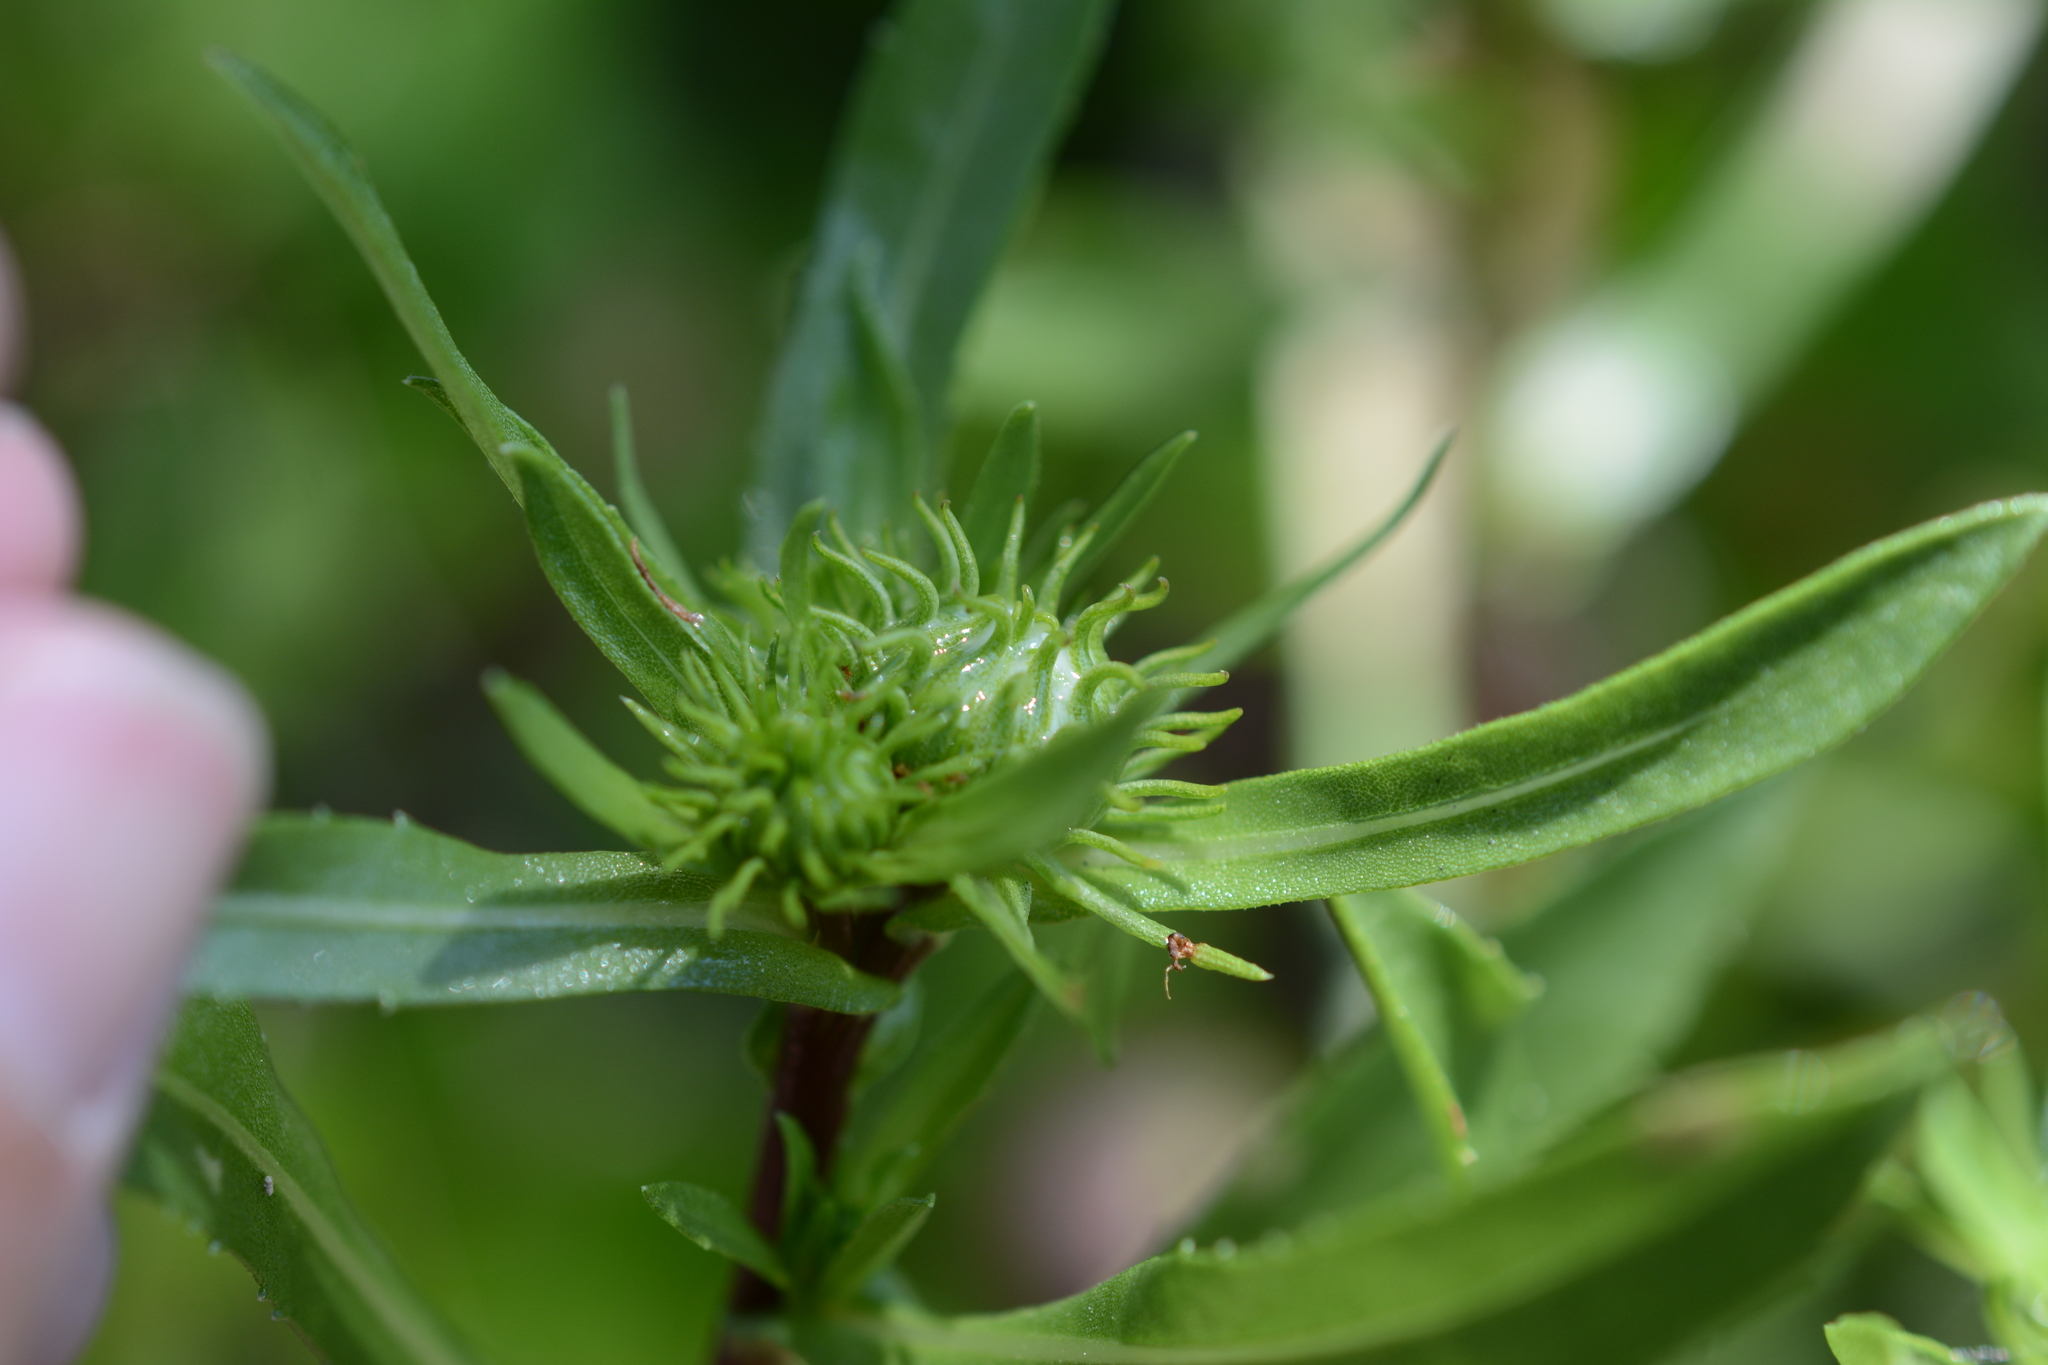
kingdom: Plantae
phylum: Tracheophyta
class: Magnoliopsida
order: Asterales
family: Asteraceae
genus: Grindelia
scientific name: Grindelia integrifolia
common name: Puget sound gumweed
